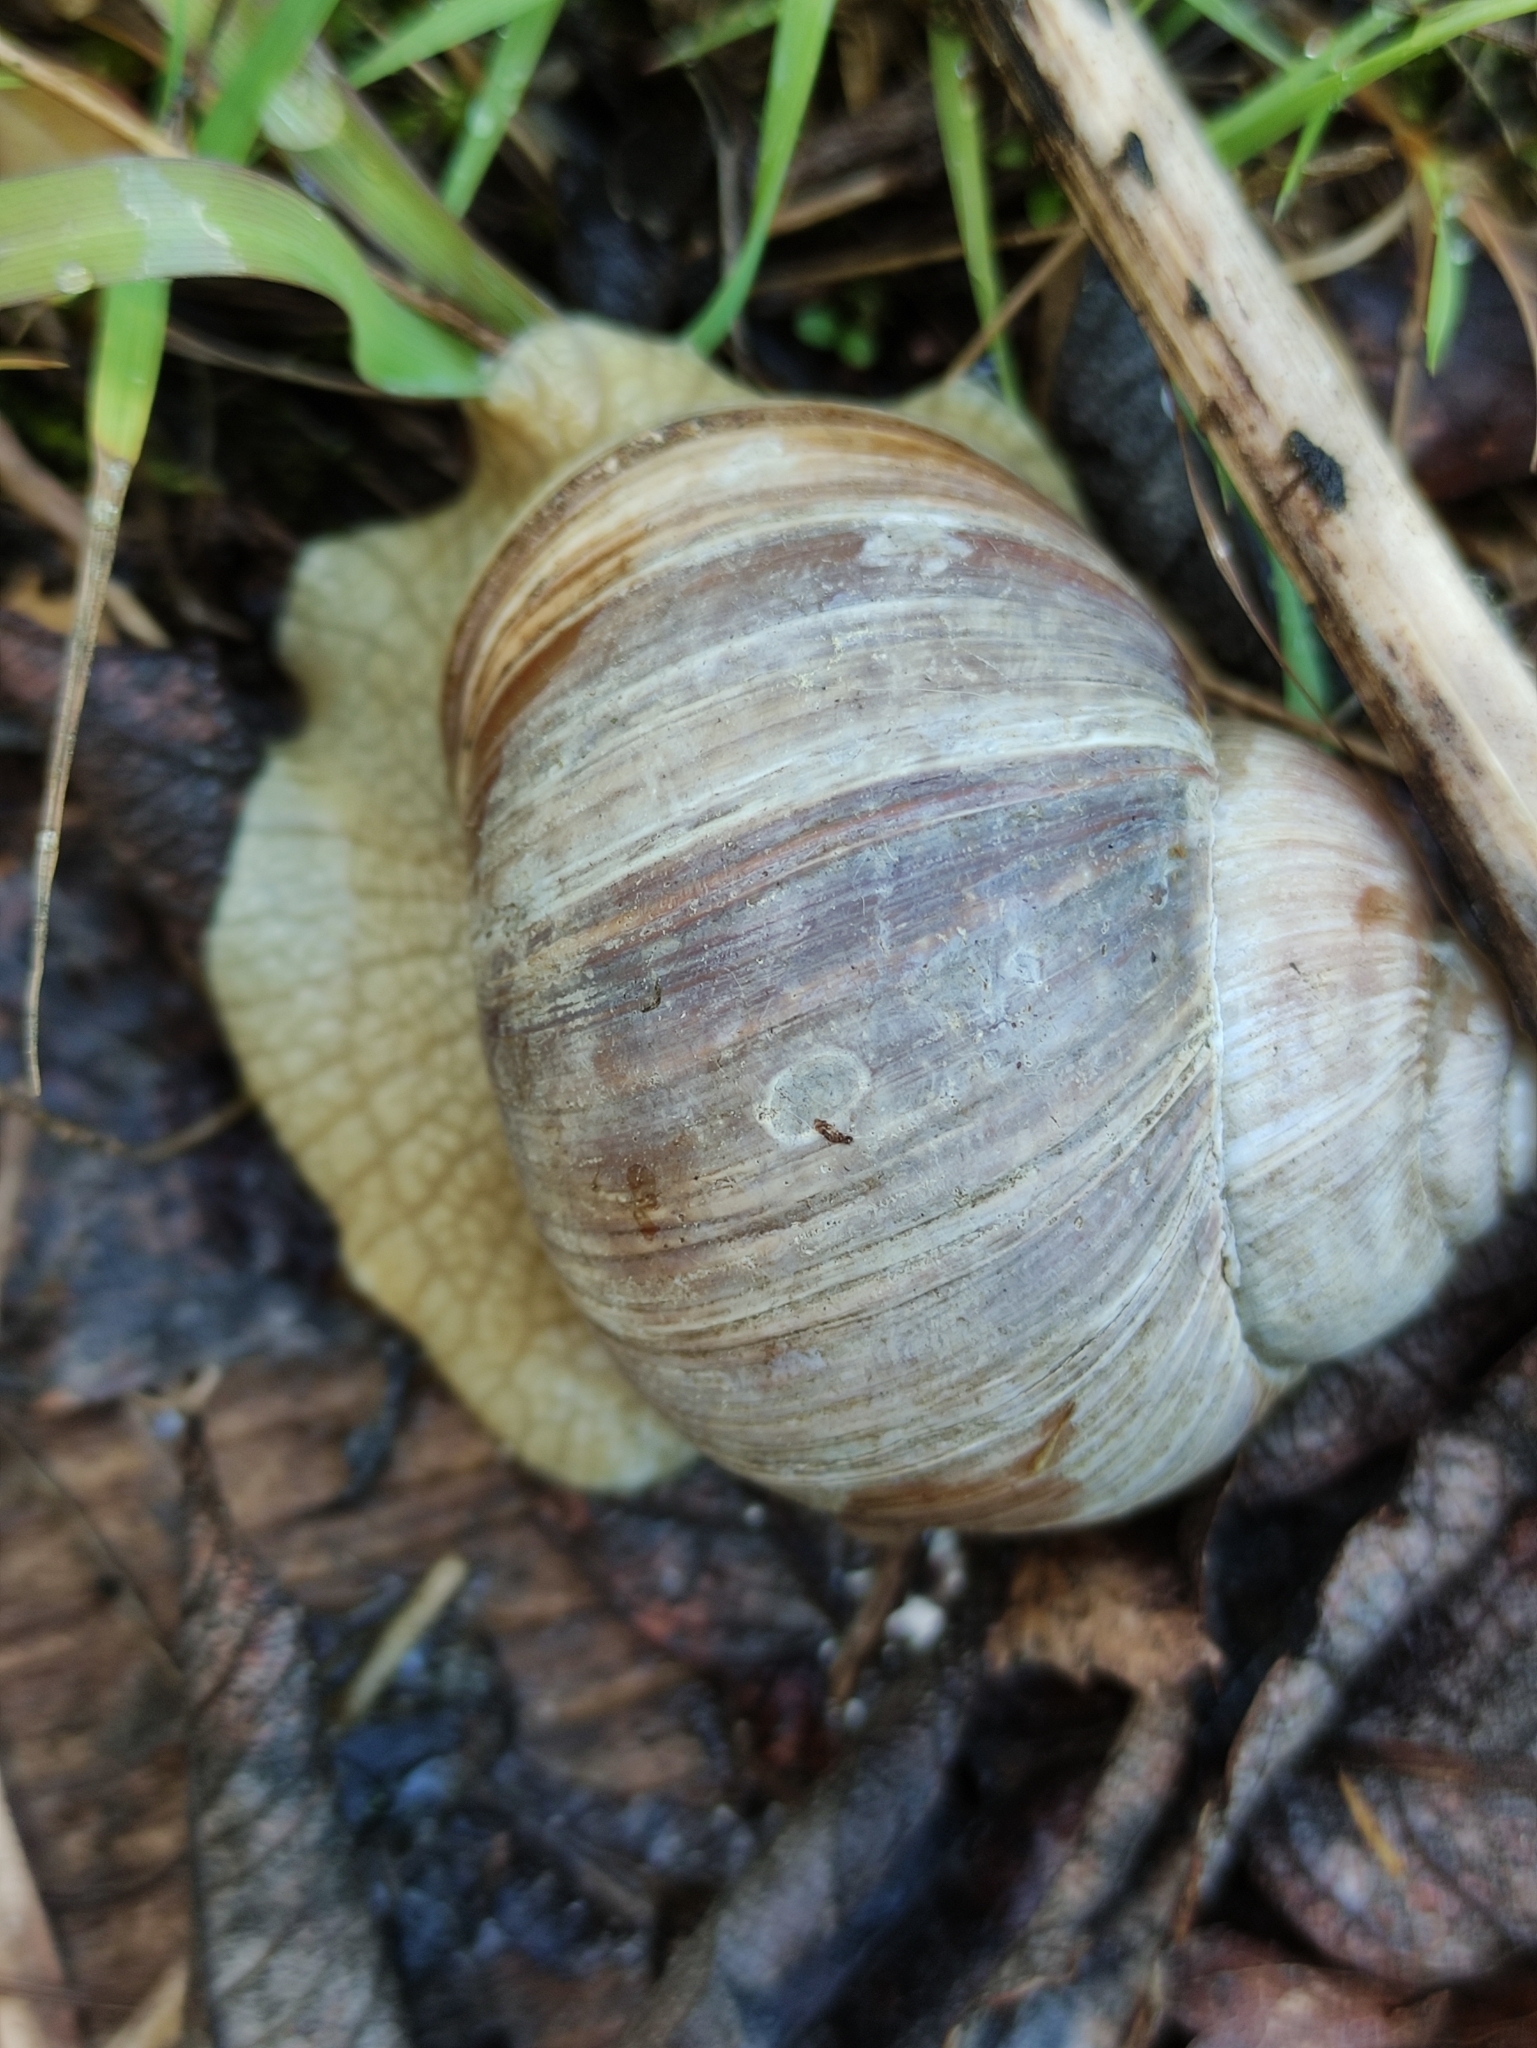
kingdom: Animalia
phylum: Mollusca
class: Gastropoda
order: Stylommatophora
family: Helicidae
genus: Helix
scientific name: Helix pomatia
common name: Roman snail
